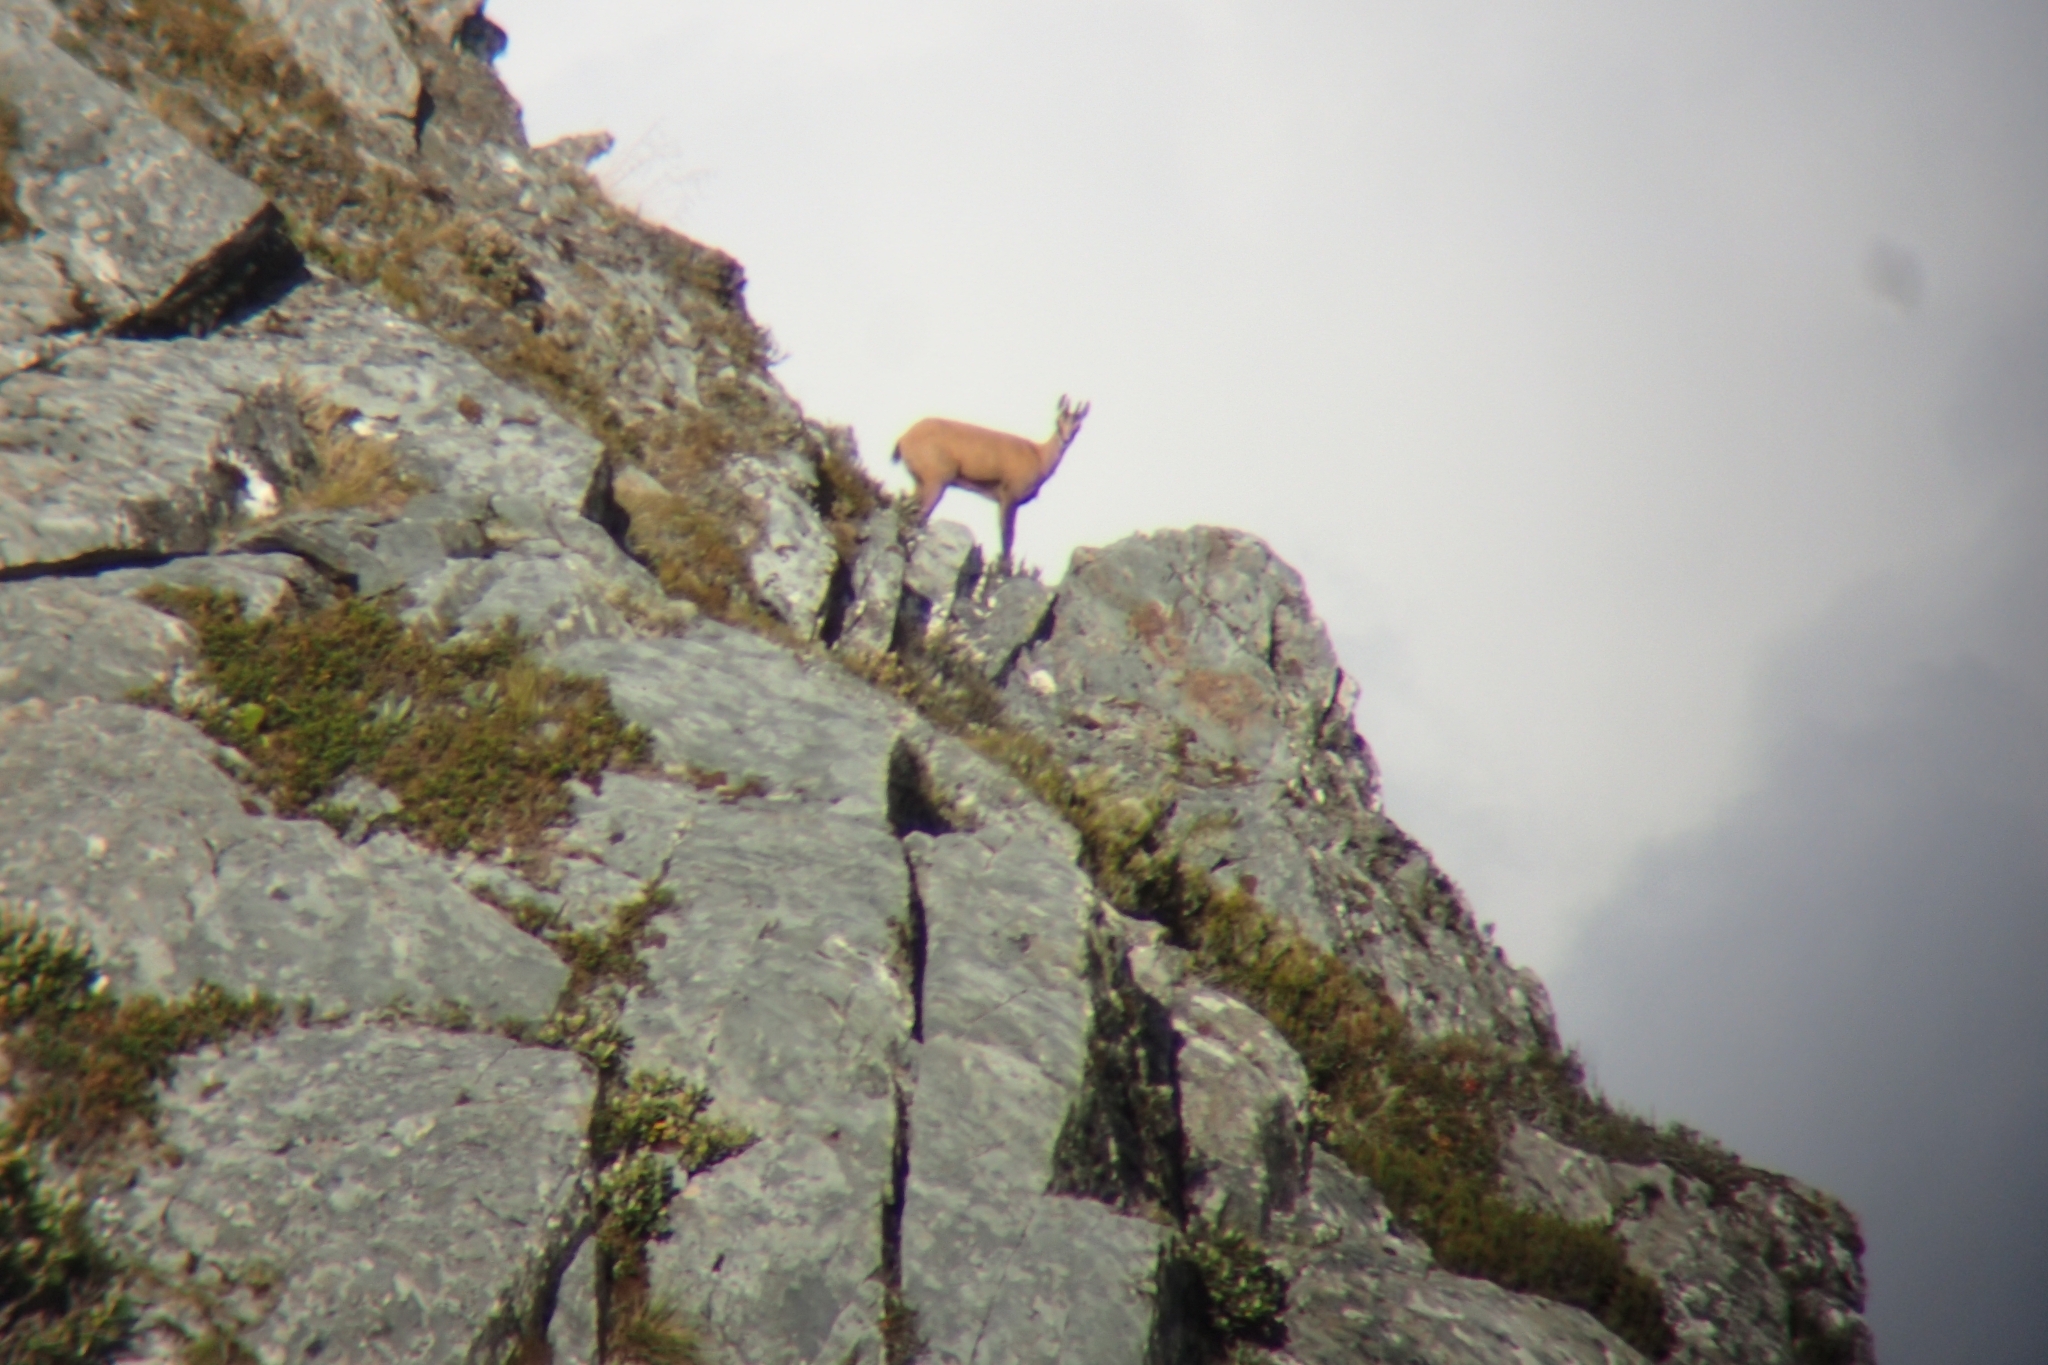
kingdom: Animalia
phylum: Chordata
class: Mammalia
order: Artiodactyla
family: Bovidae
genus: Rupicapra
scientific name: Rupicapra rupicapra
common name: Chamois
